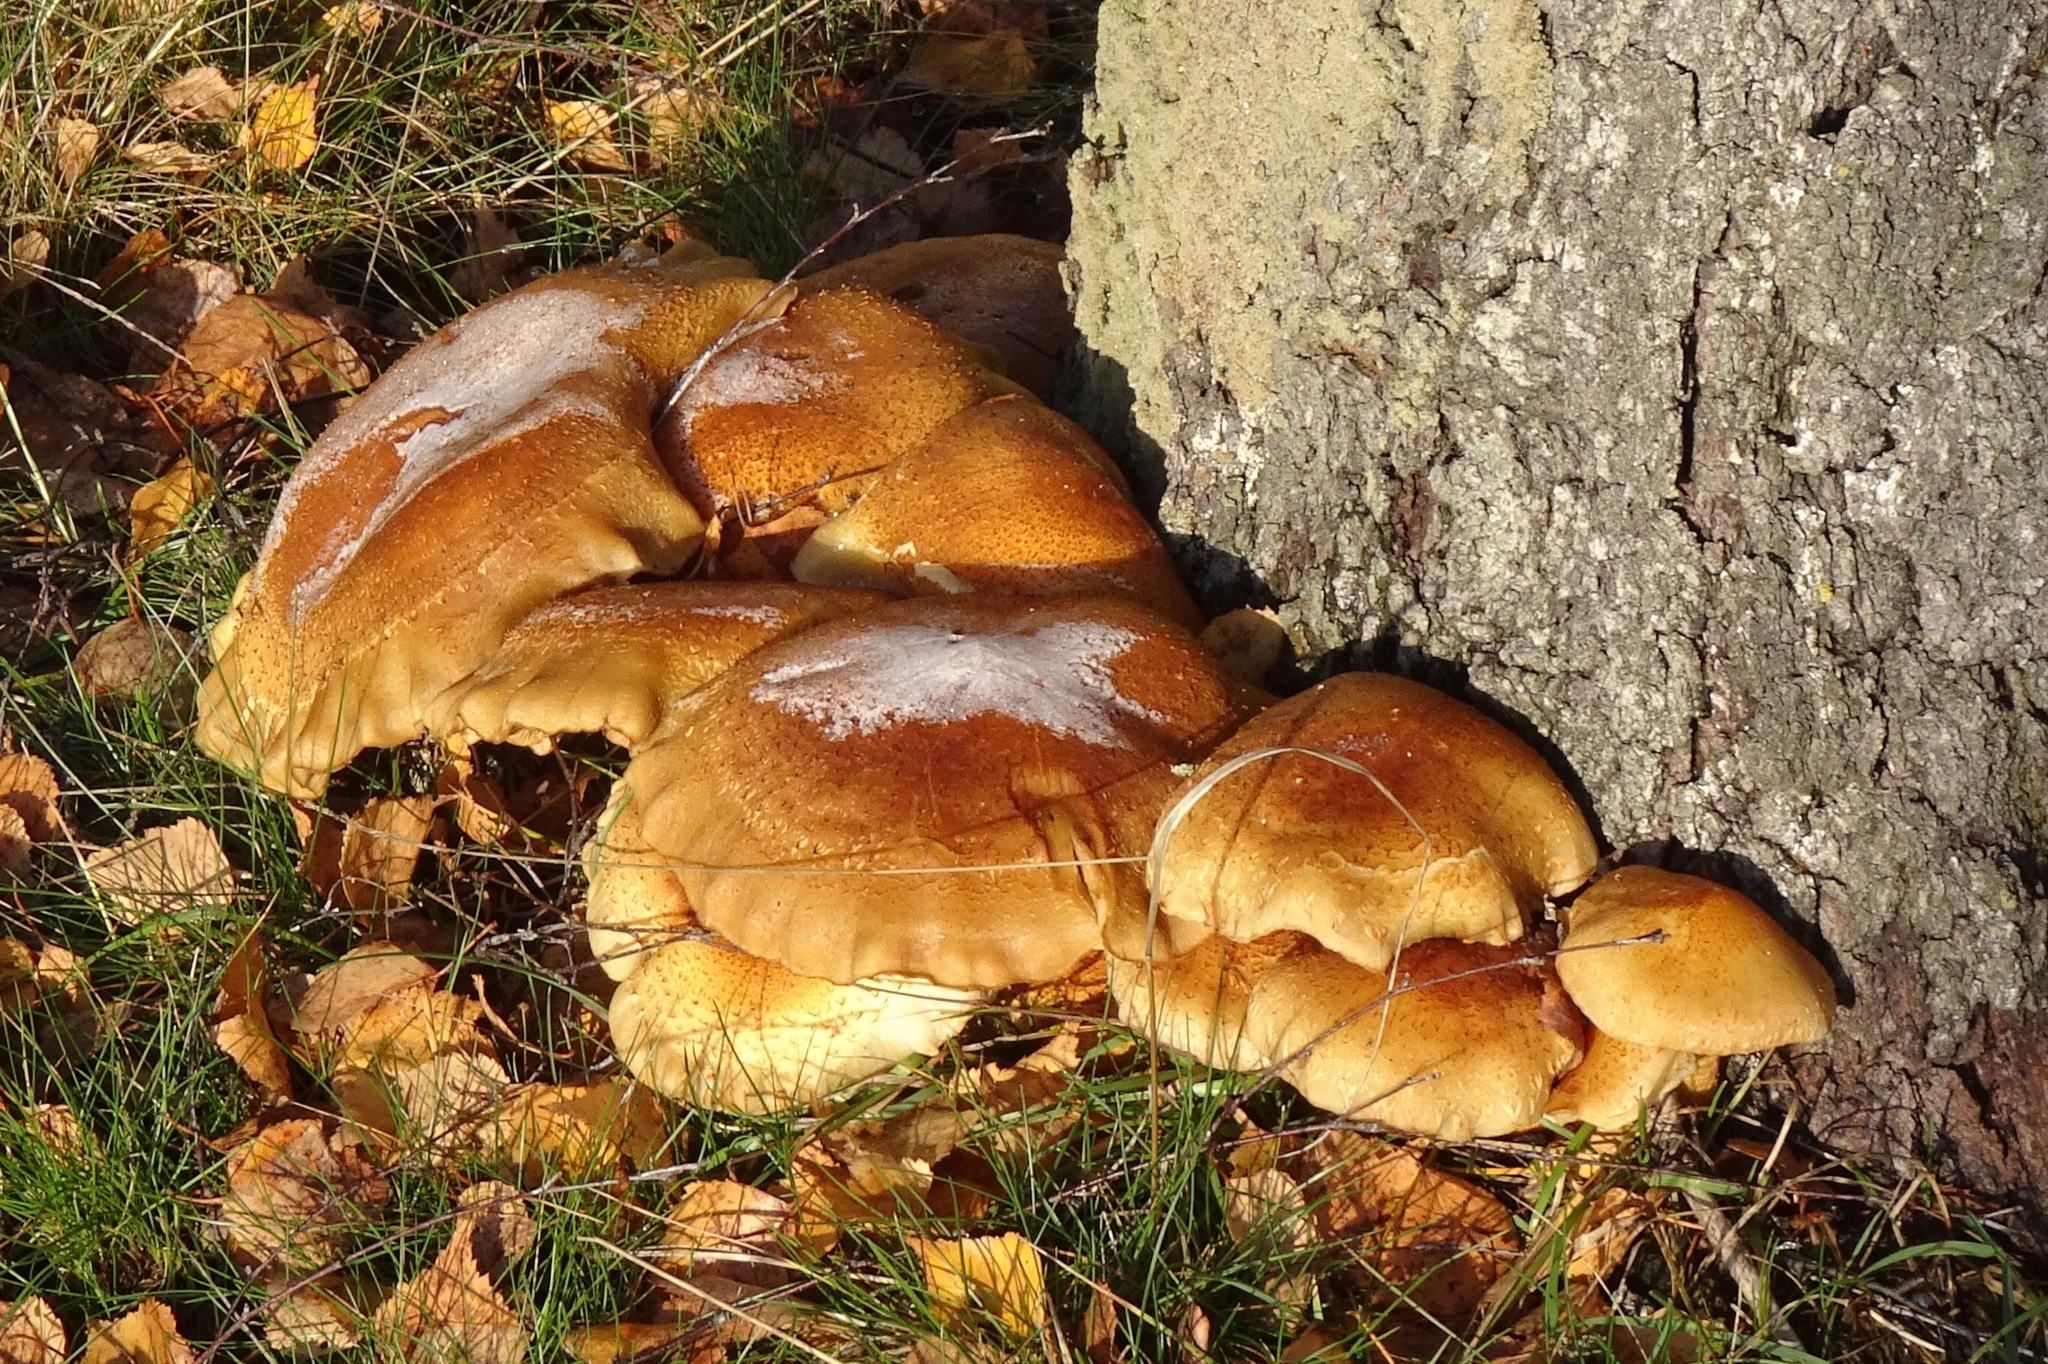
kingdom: Fungi
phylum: Basidiomycota
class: Agaricomycetes
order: Agaricales
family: Strophariaceae
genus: Pholiota
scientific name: Pholiota aurivella
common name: Golden scalycap
